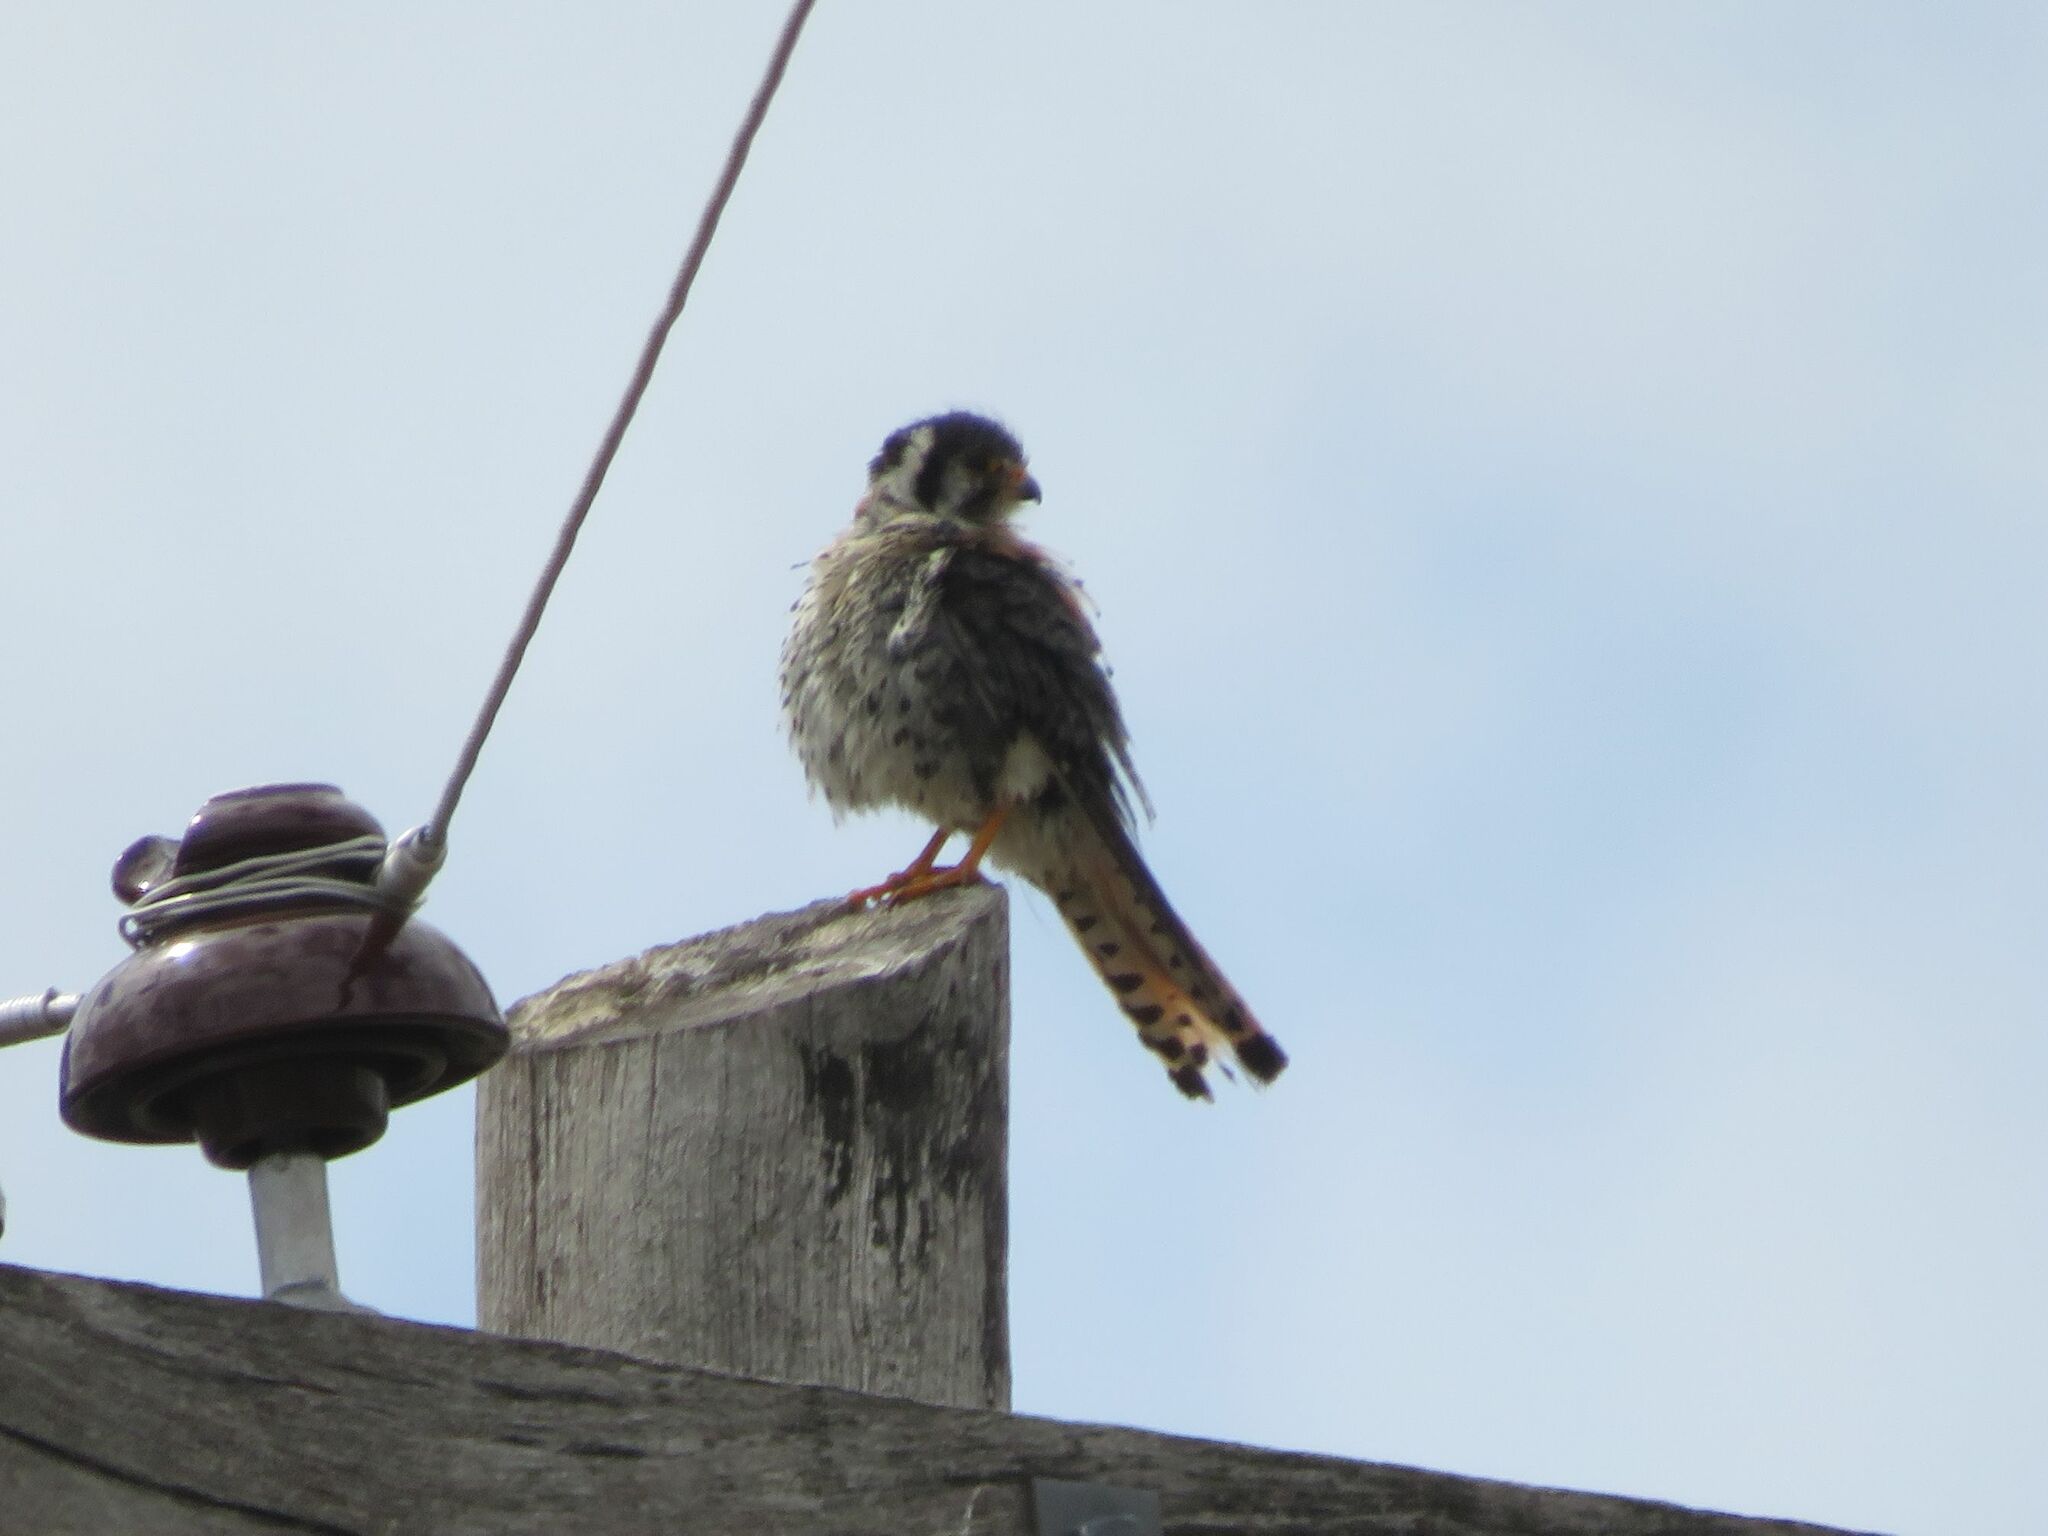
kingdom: Animalia
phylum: Chordata
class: Aves
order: Falconiformes
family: Falconidae
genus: Falco
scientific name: Falco sparverius
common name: American kestrel
